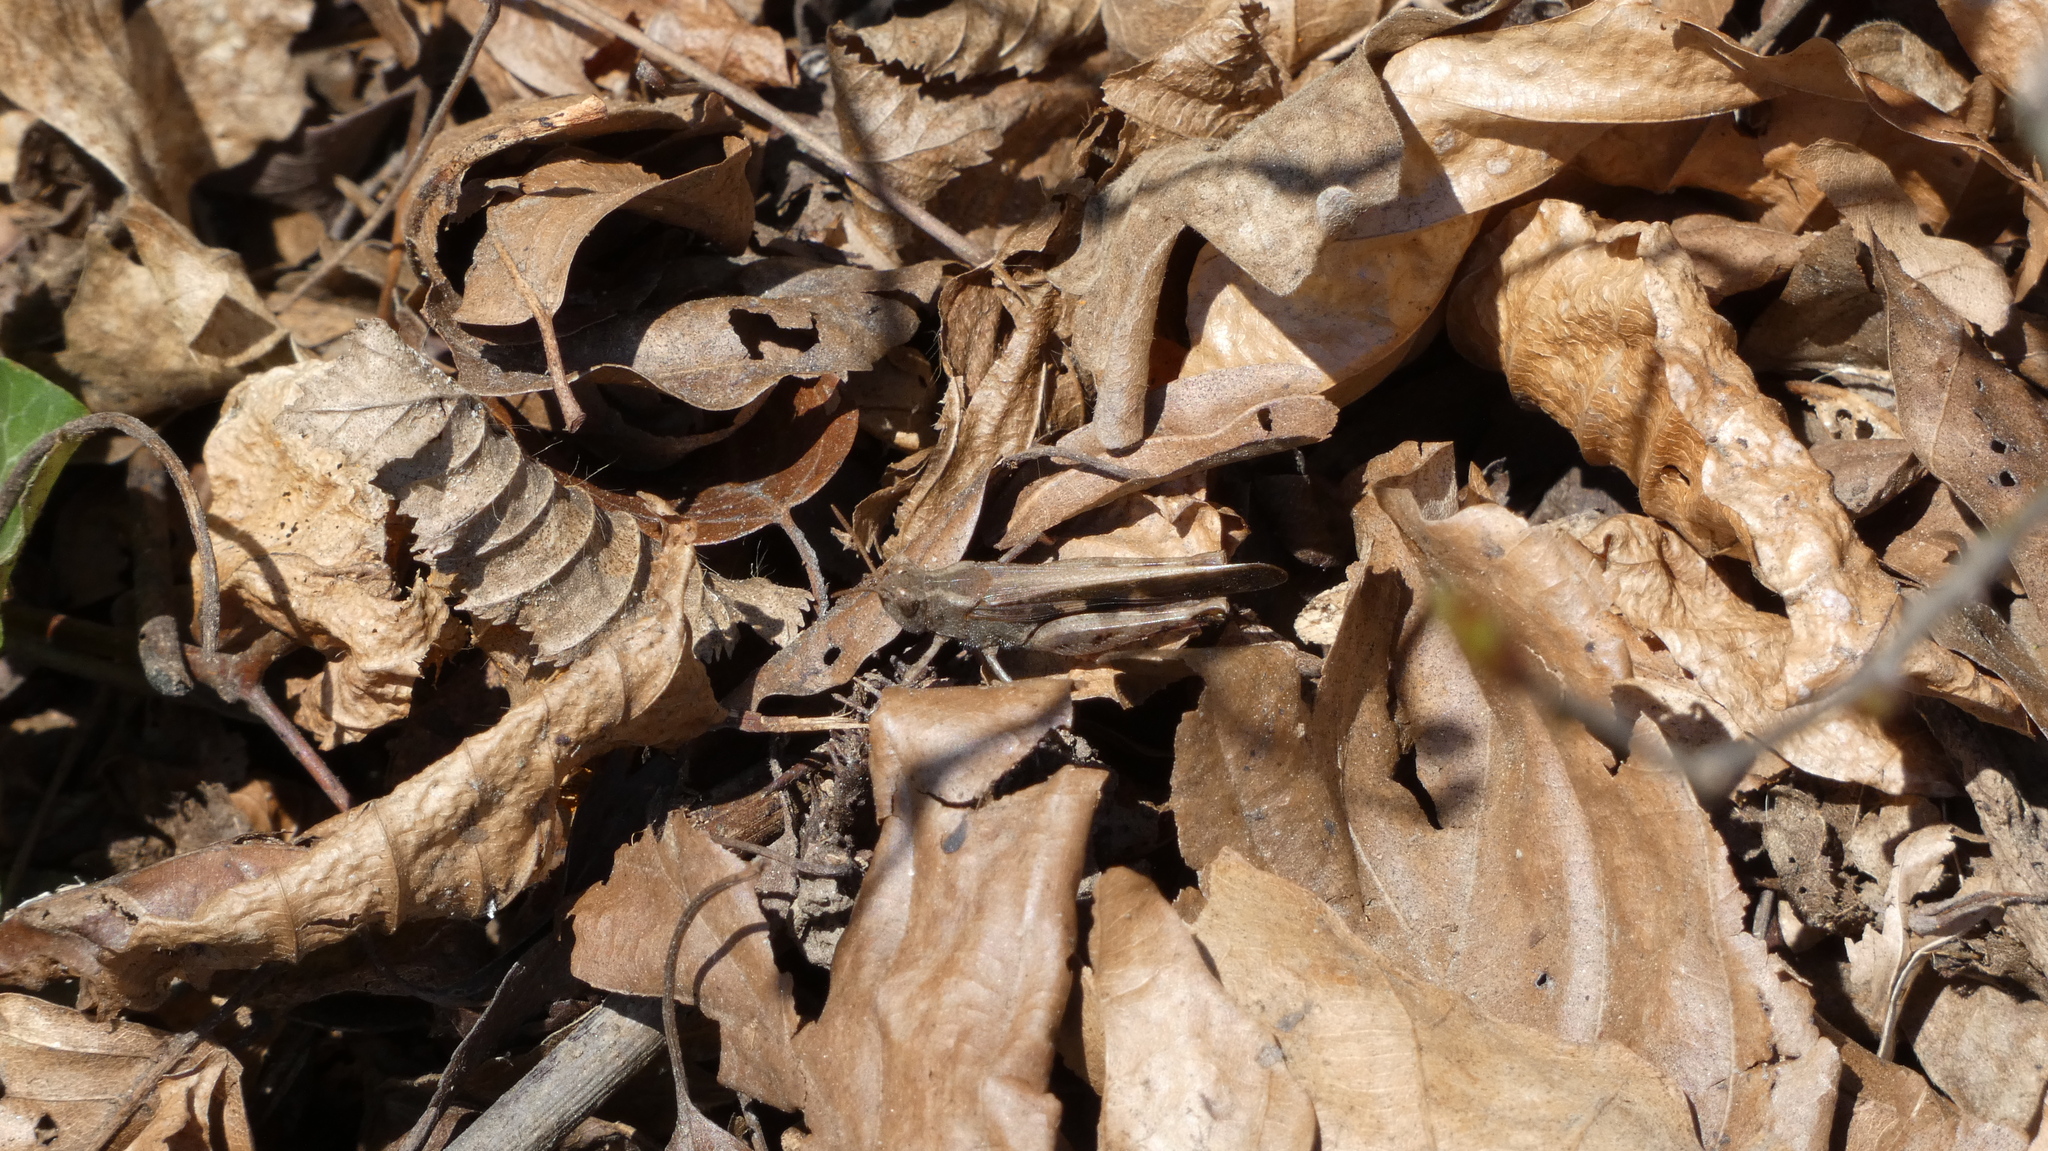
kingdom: Animalia
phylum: Arthropoda
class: Insecta
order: Orthoptera
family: Acrididae
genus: Aiolopus
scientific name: Aiolopus strepens
